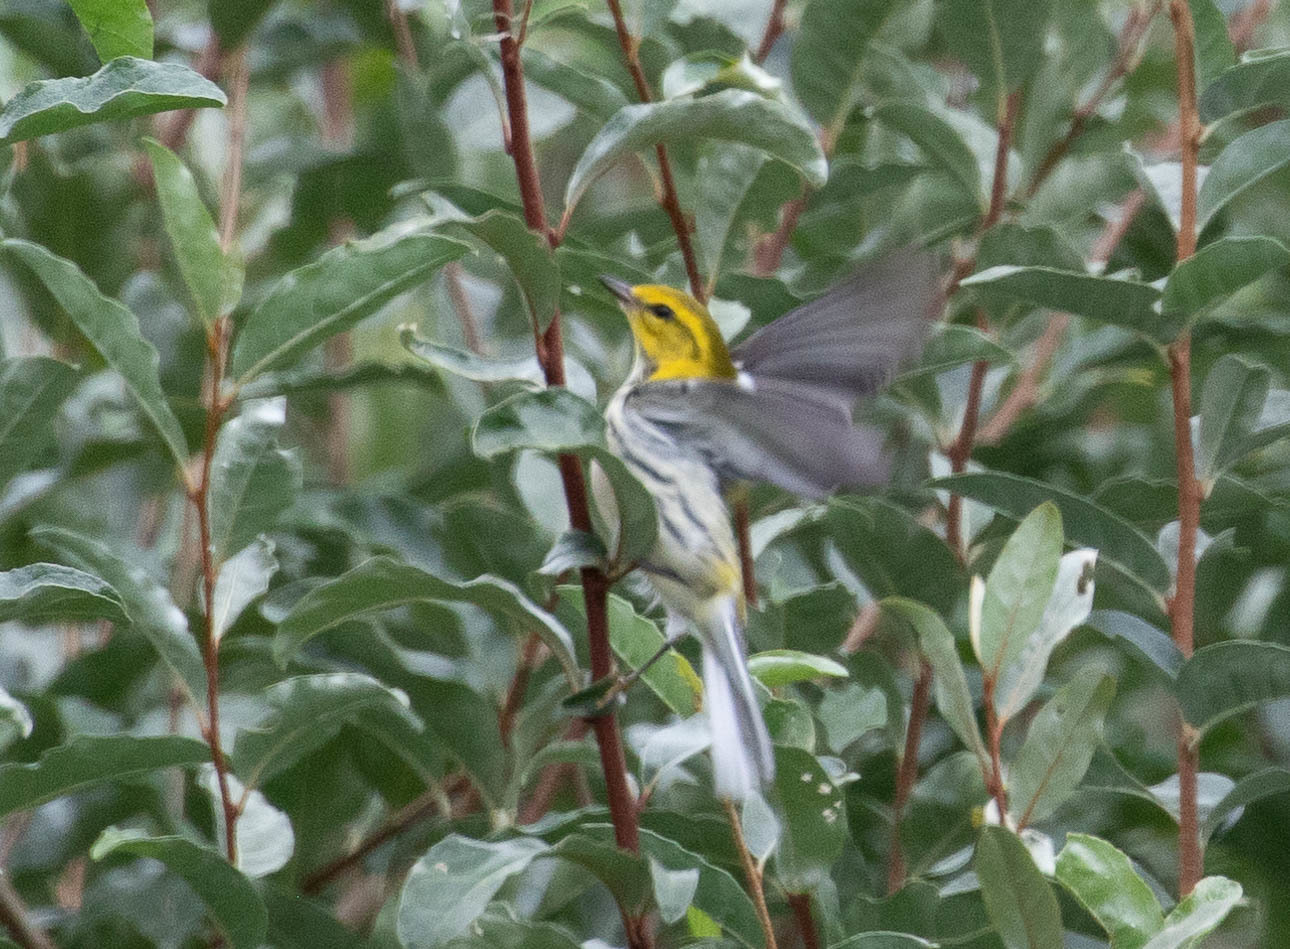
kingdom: Animalia
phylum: Chordata
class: Aves
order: Passeriformes
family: Parulidae
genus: Setophaga
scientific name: Setophaga virens
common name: Black-throated green warbler
